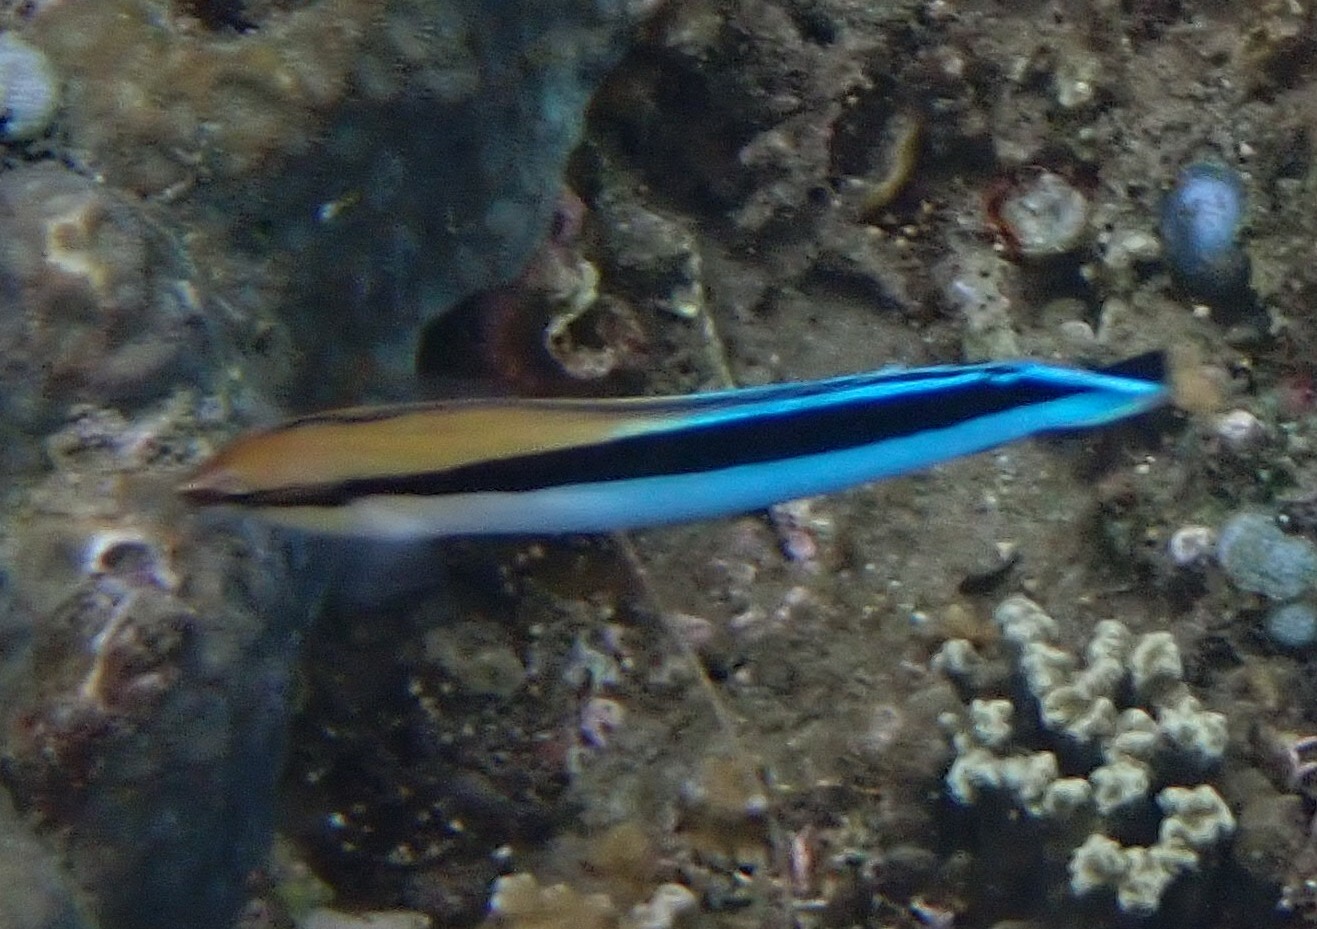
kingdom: Animalia
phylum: Chordata
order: Perciformes
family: Blenniidae
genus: Aspidontus
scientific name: Aspidontus taeniatus
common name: False cleanerfish
